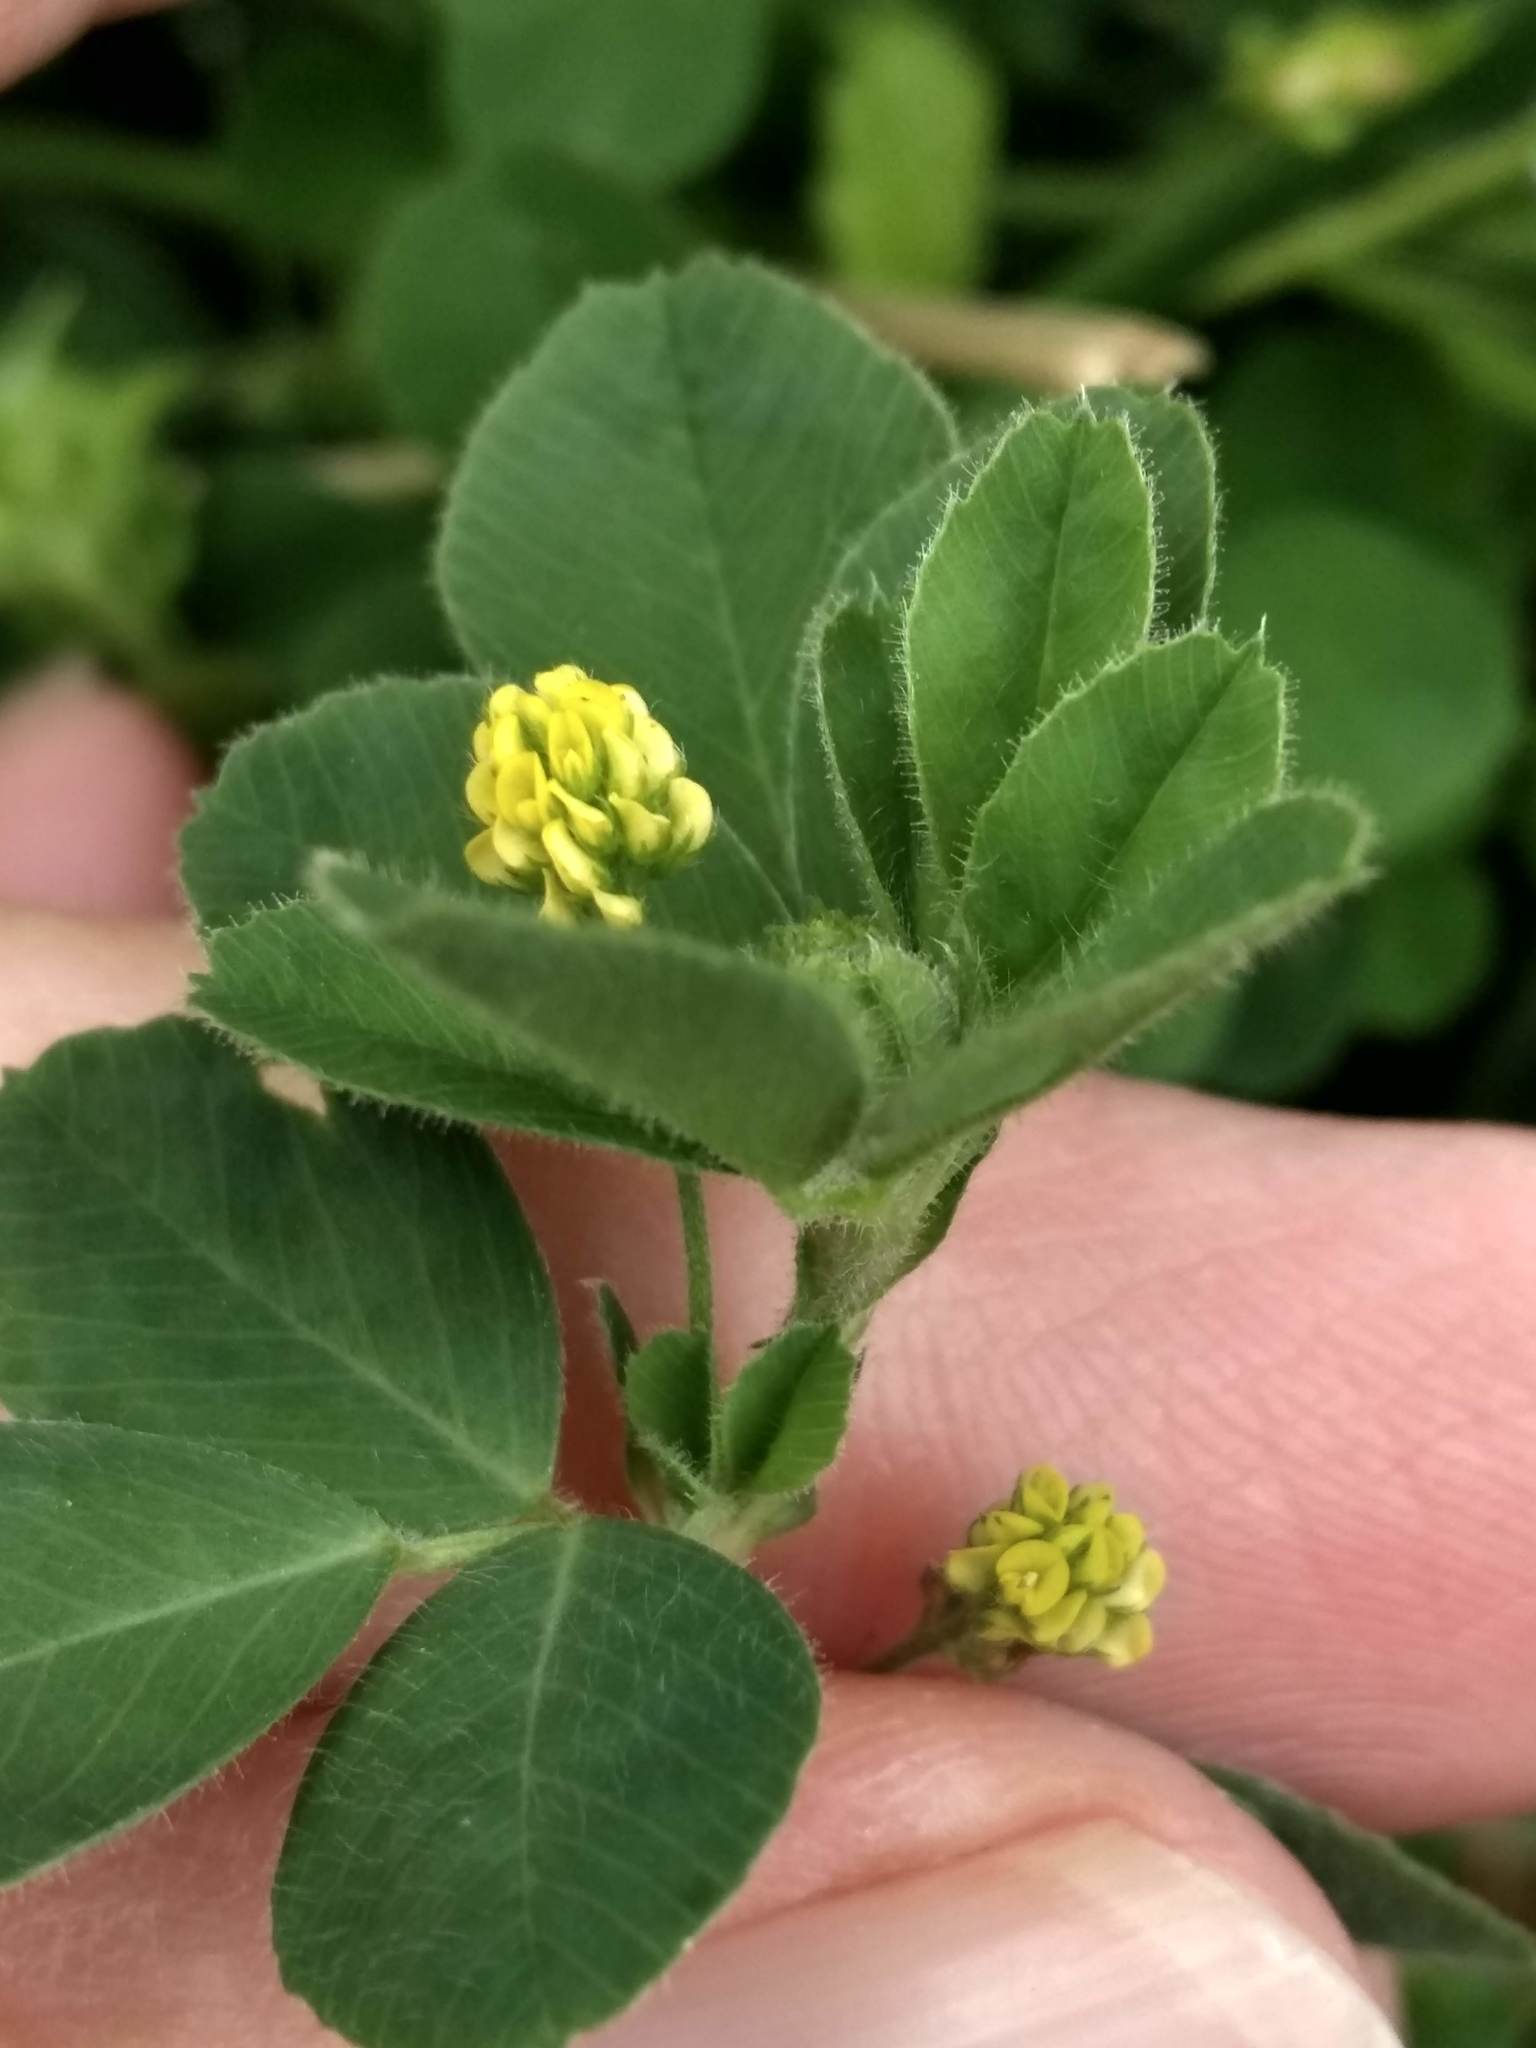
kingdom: Plantae
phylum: Tracheophyta
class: Magnoliopsida
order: Fabales
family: Fabaceae
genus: Medicago
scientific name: Medicago lupulina
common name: Black medick
